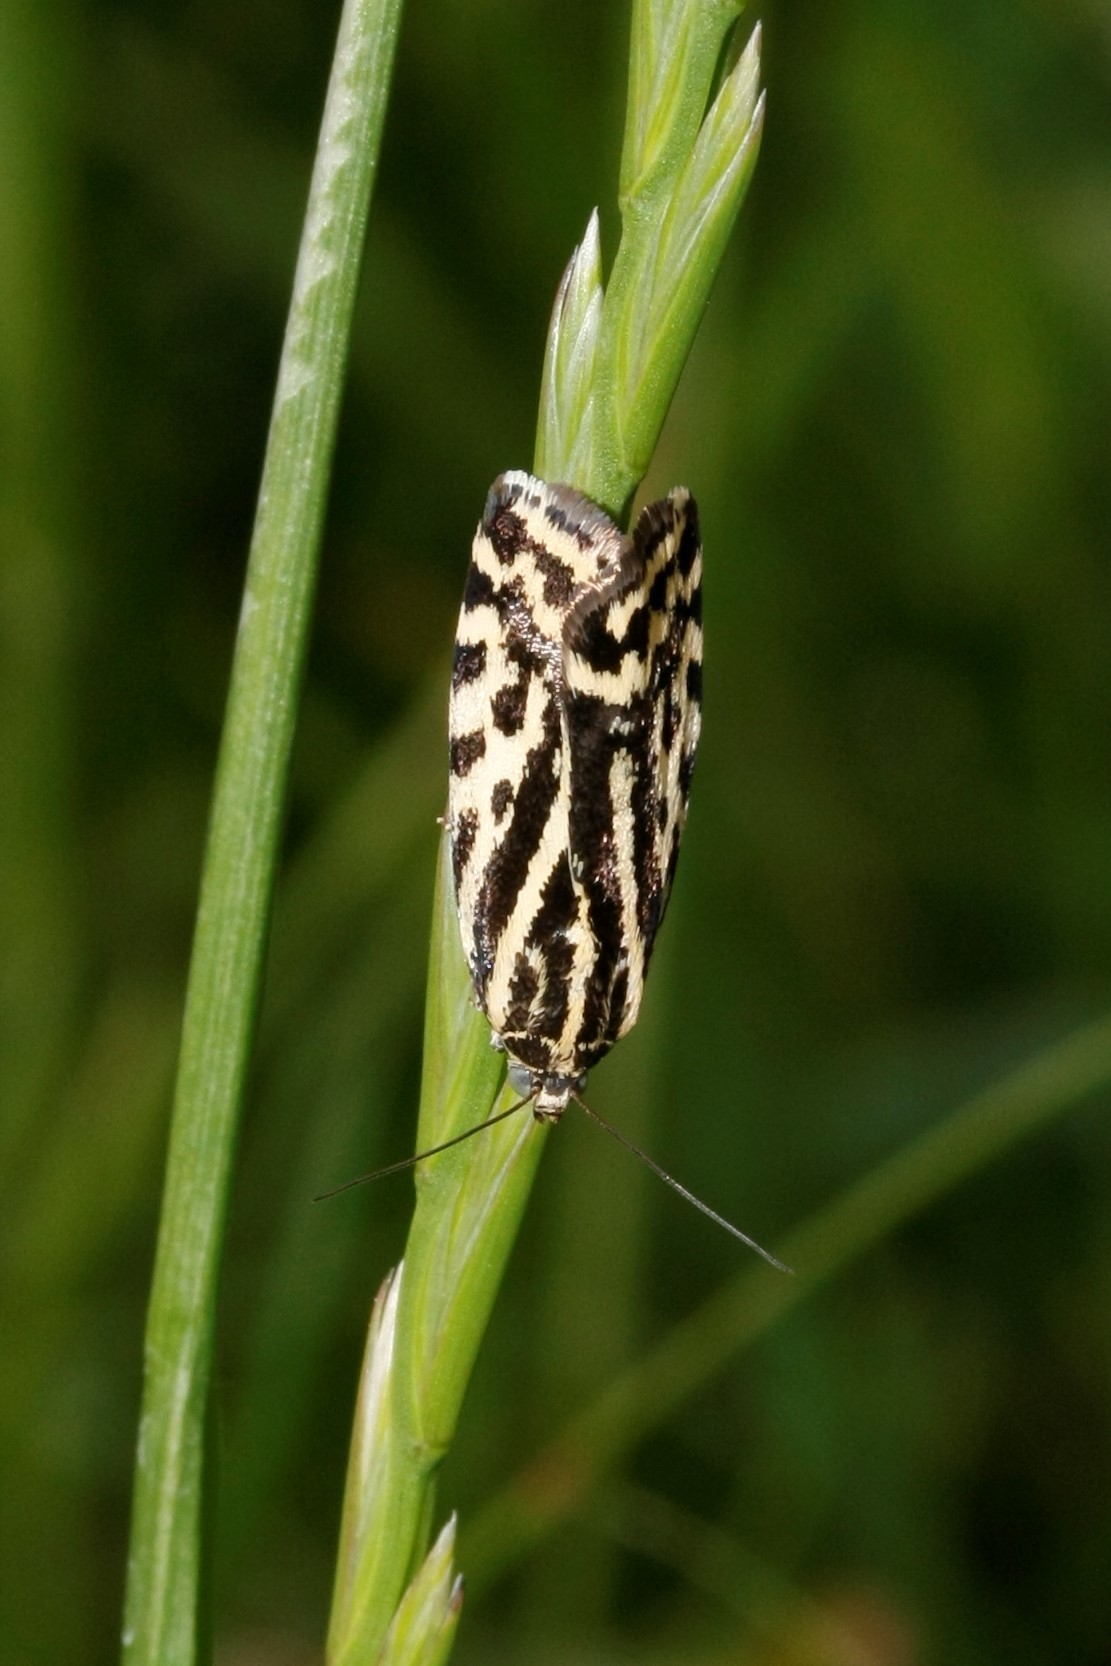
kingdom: Animalia
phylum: Arthropoda
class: Insecta
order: Lepidoptera
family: Noctuidae
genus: Acontia
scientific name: Acontia trabealis
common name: Spotted sulphur
